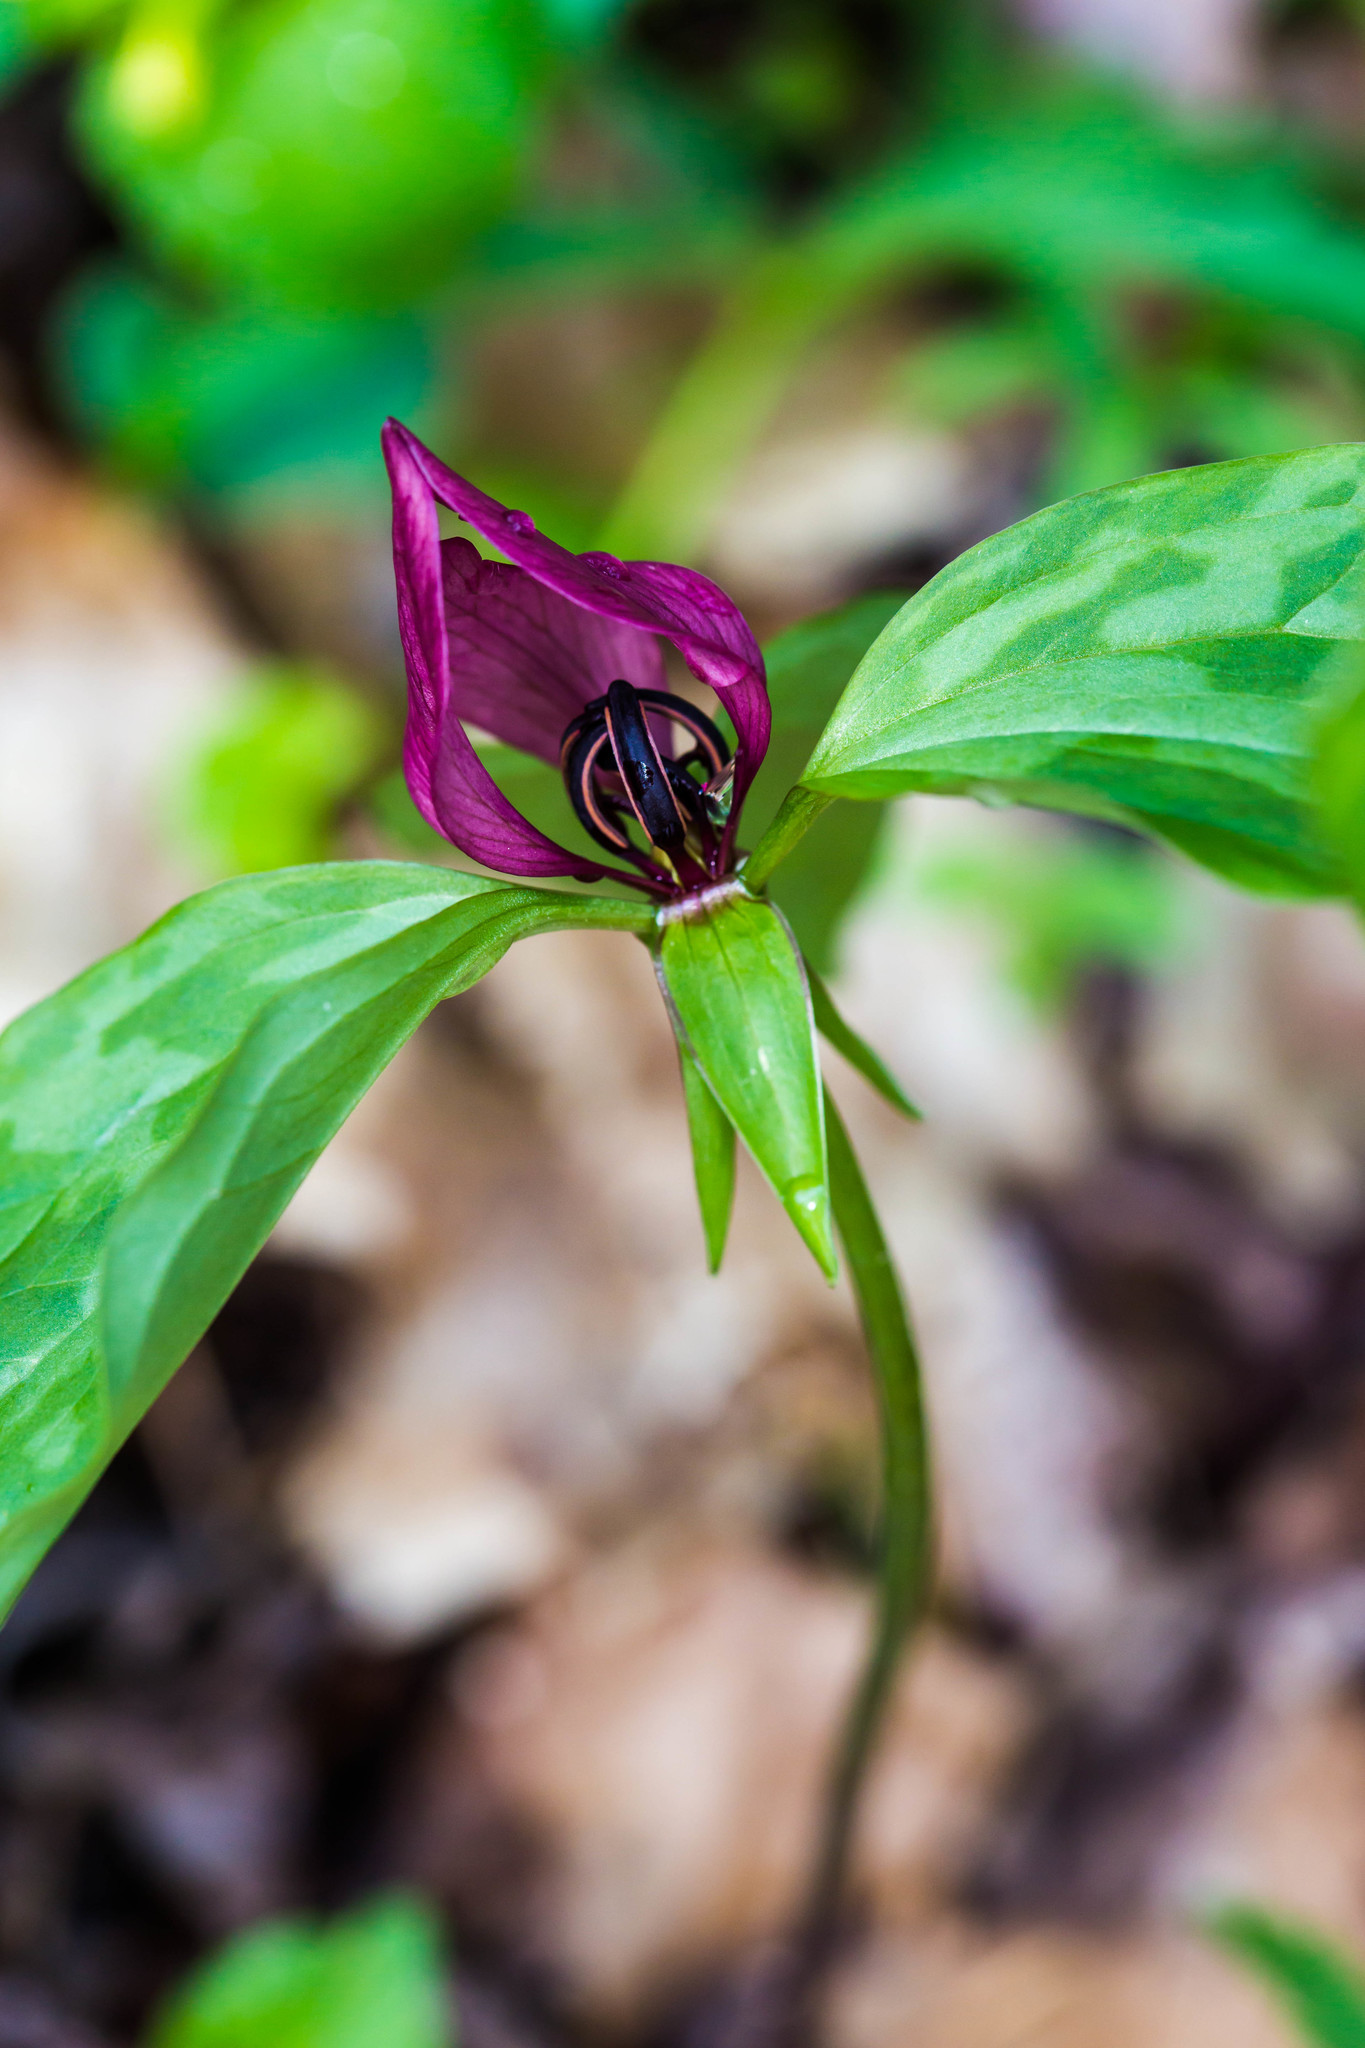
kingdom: Plantae
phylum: Tracheophyta
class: Liliopsida
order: Liliales
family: Melanthiaceae
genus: Trillium
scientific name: Trillium recurvatum
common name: Bloody butcher
